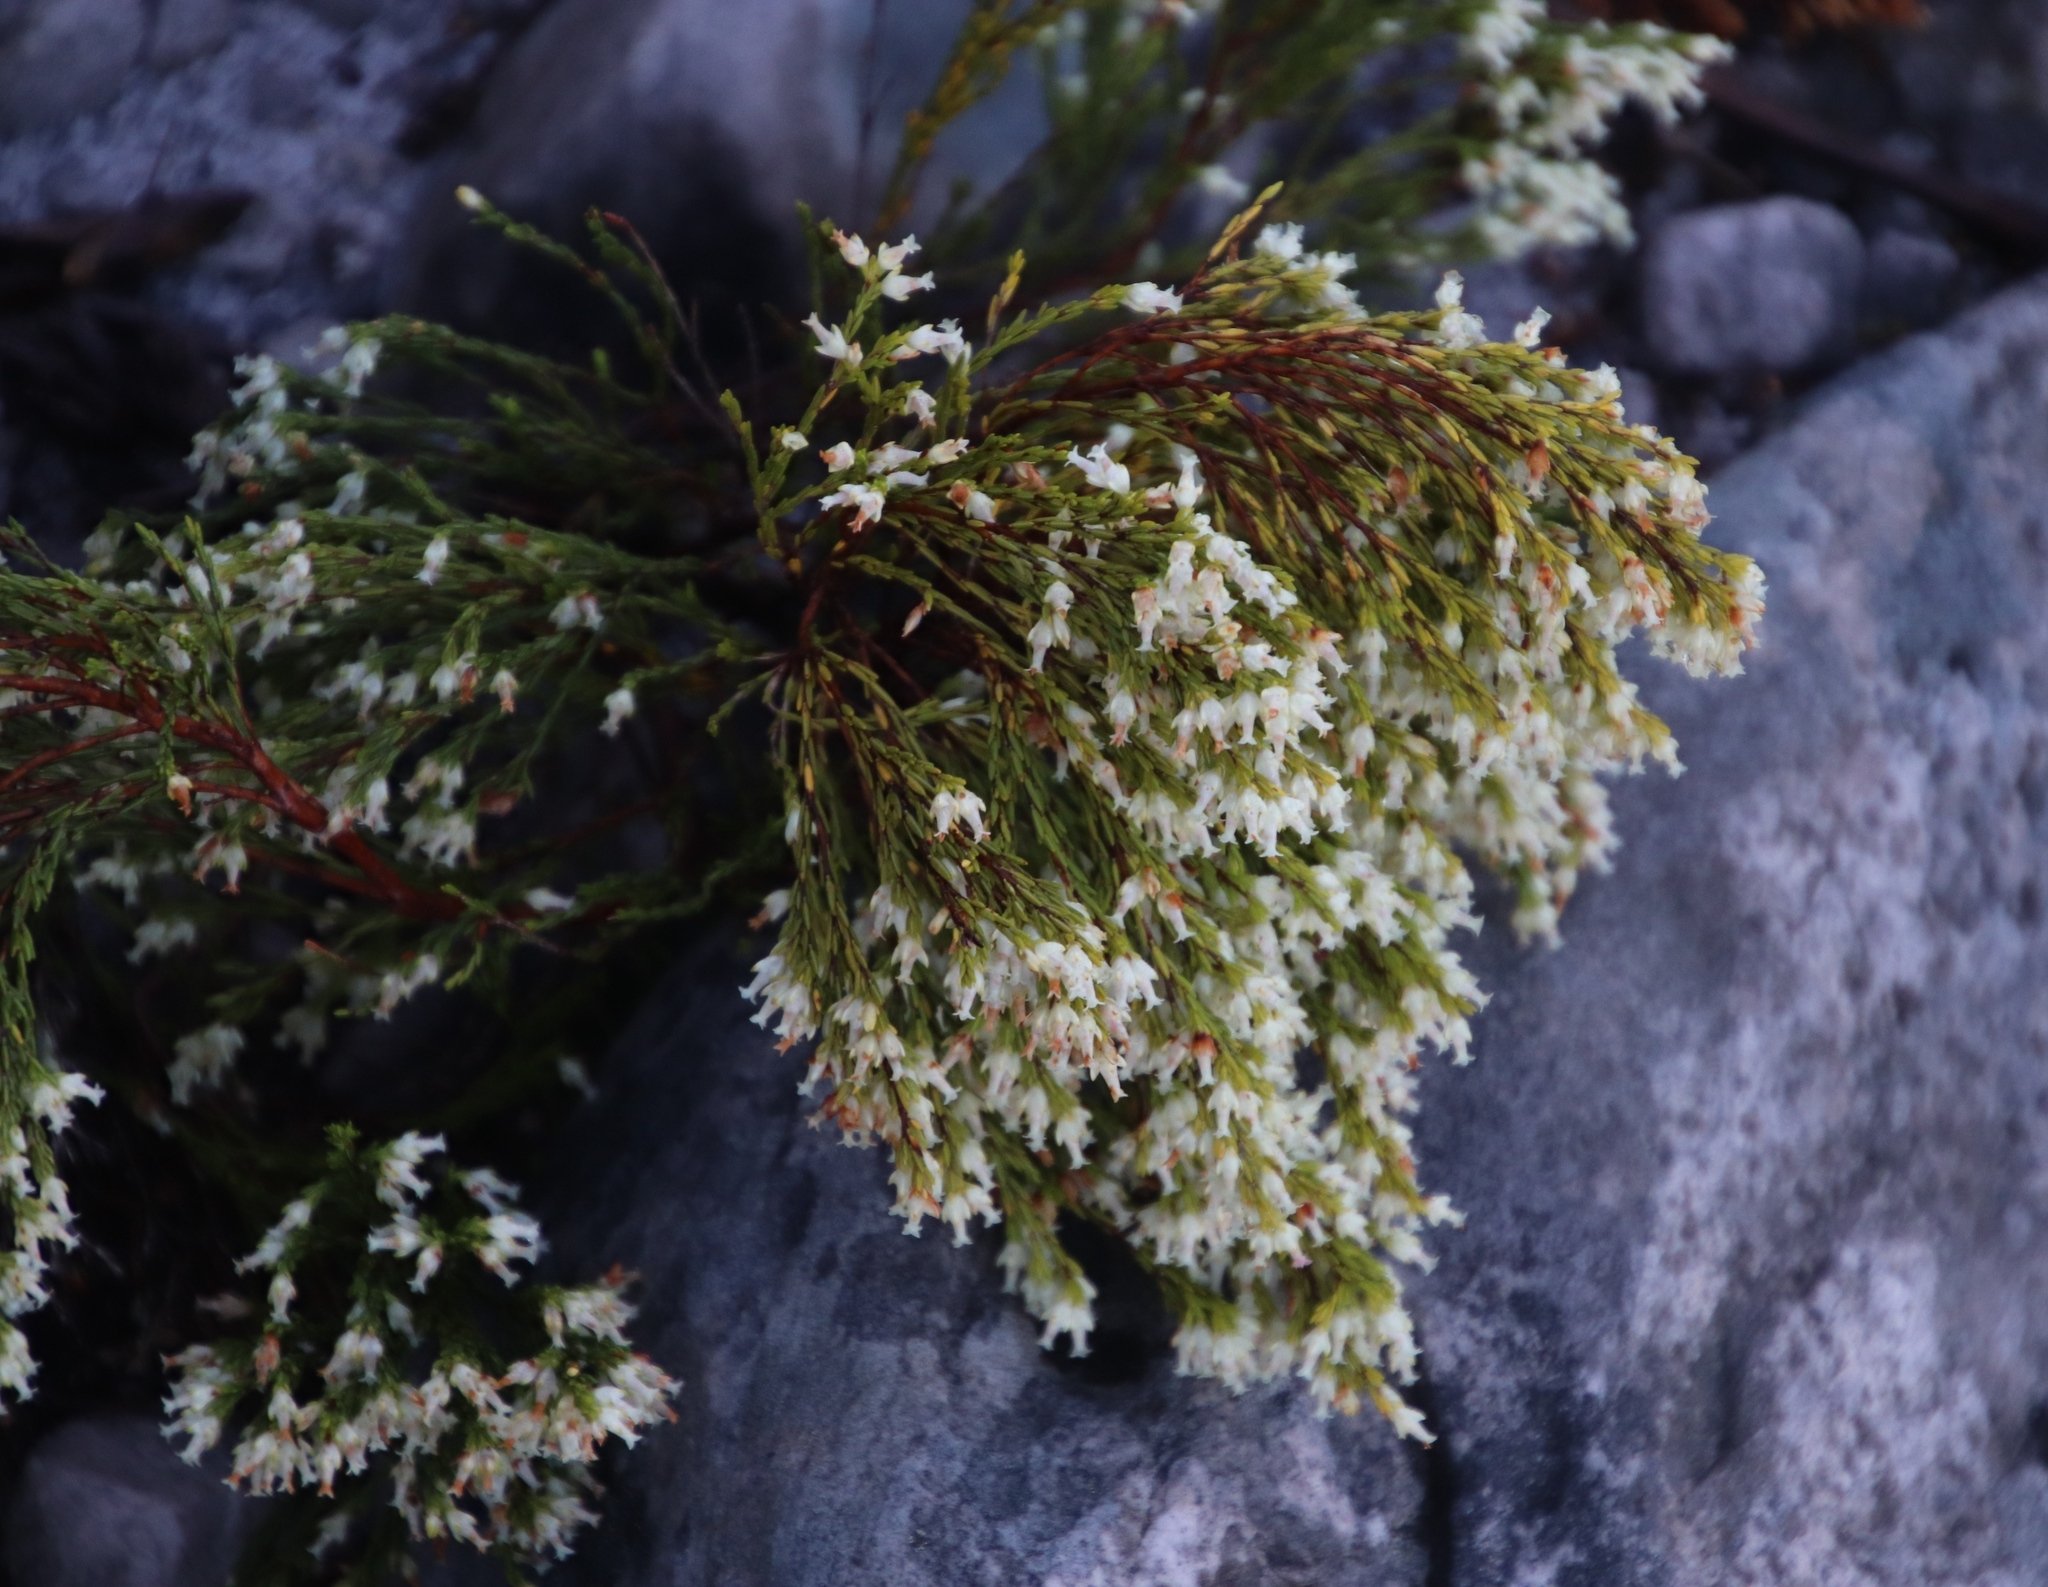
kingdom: Plantae
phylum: Tracheophyta
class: Magnoliopsida
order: Ericales
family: Ericaceae
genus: Erica
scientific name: Erica lutea
